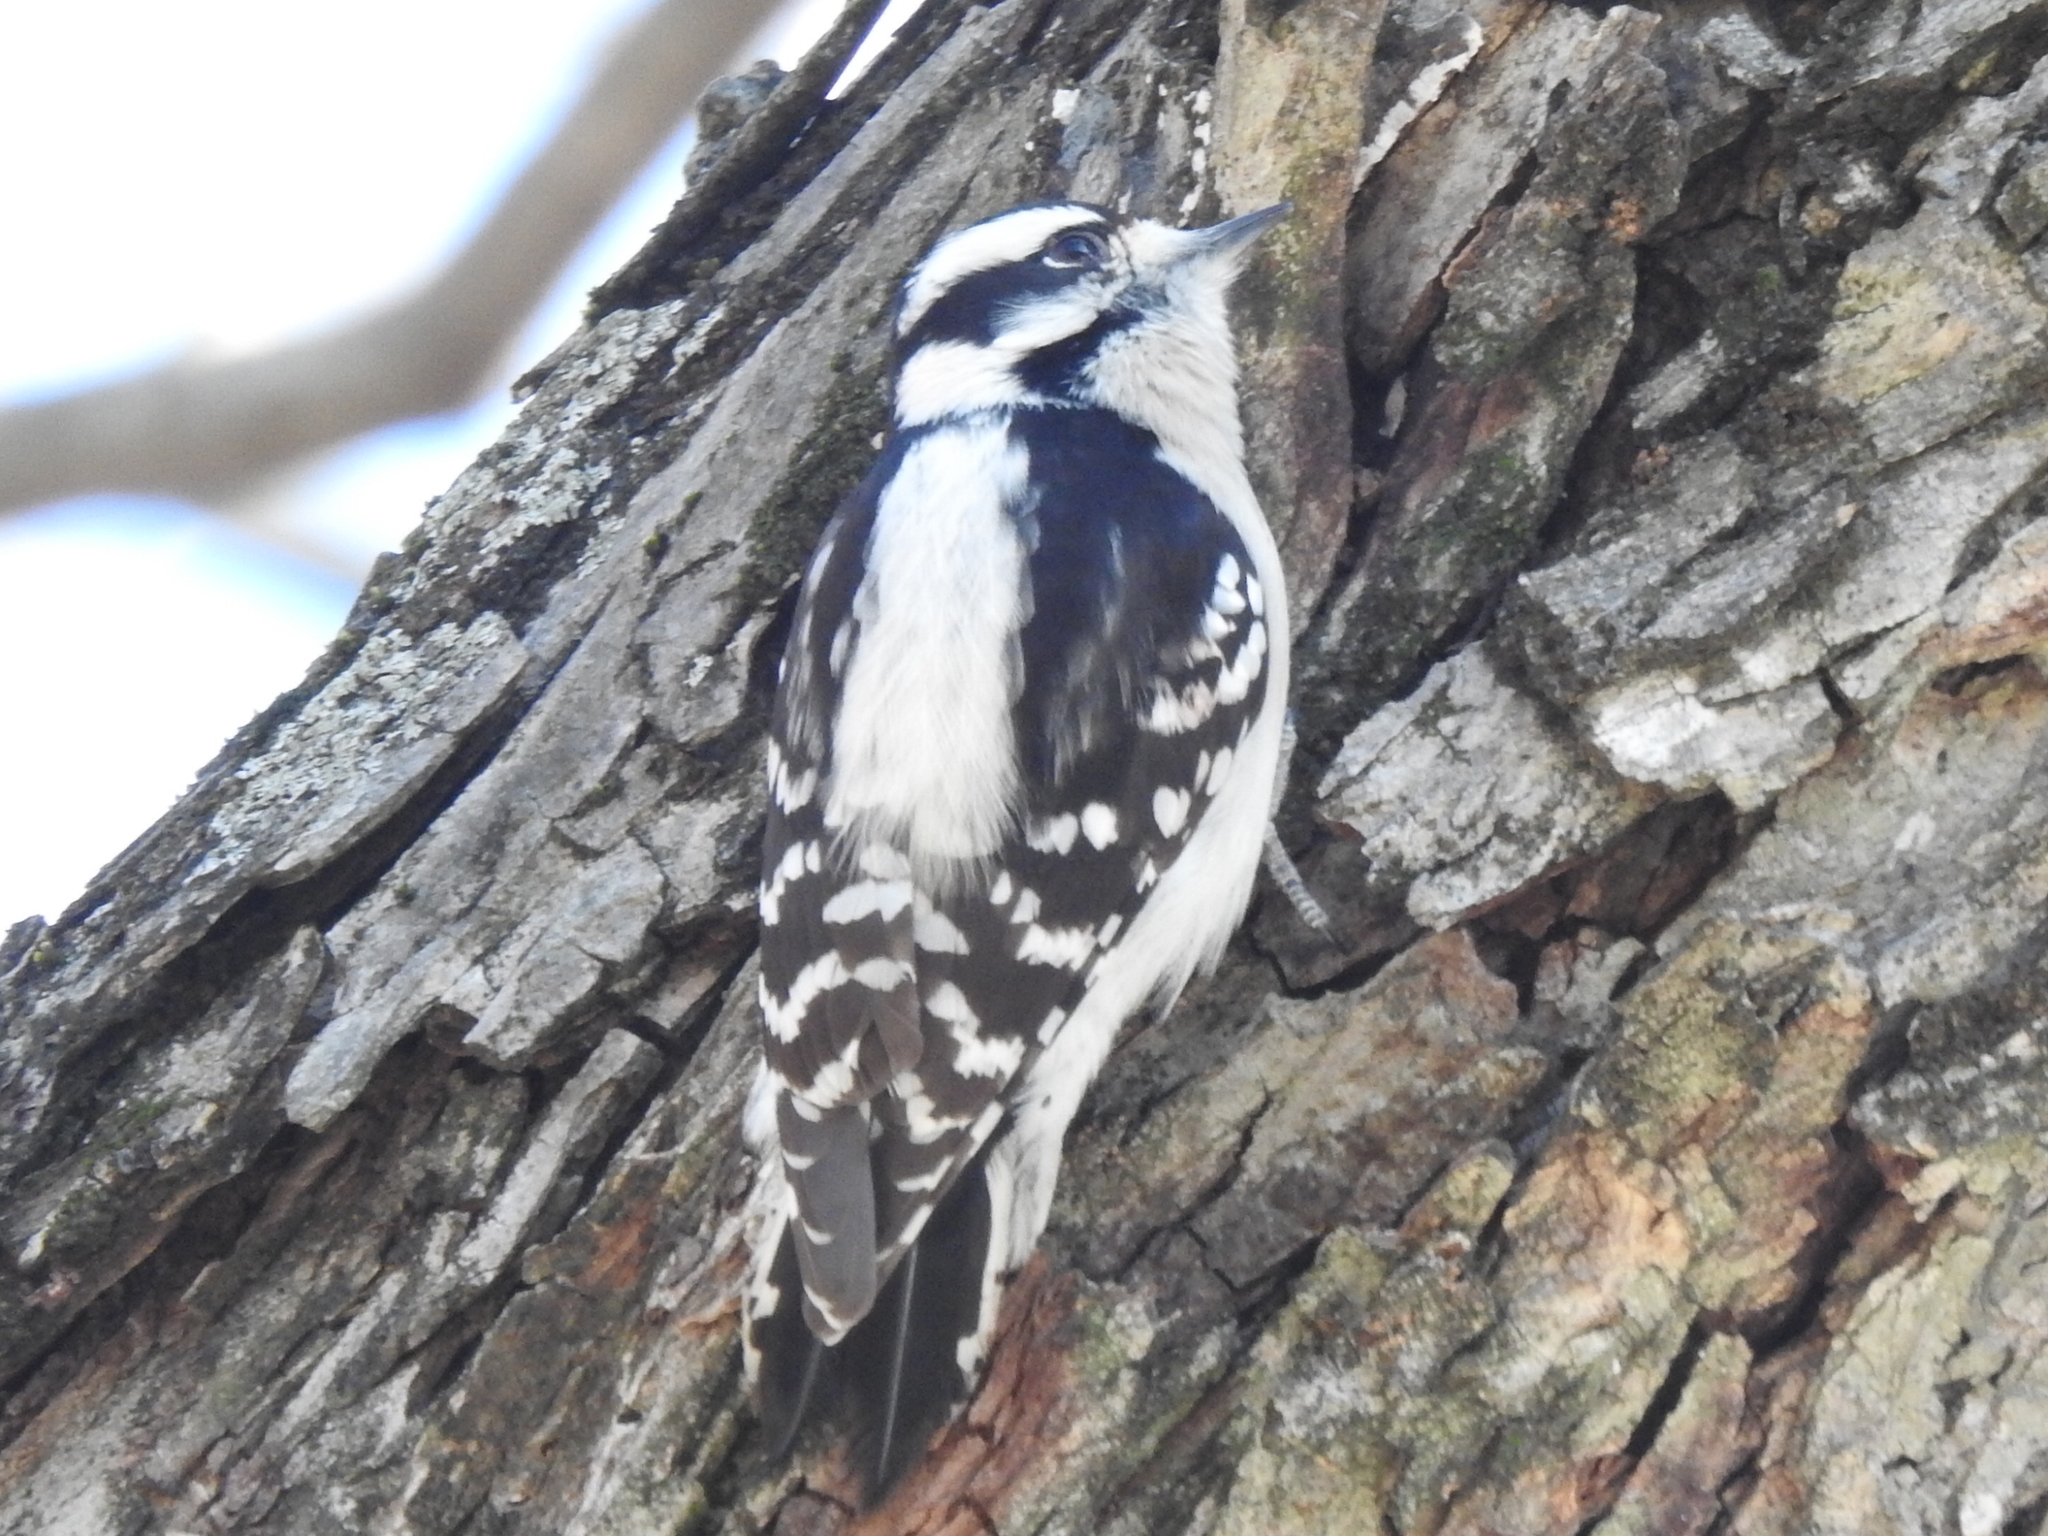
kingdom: Animalia
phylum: Chordata
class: Aves
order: Piciformes
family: Picidae
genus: Dryobates
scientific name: Dryobates pubescens
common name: Downy woodpecker
